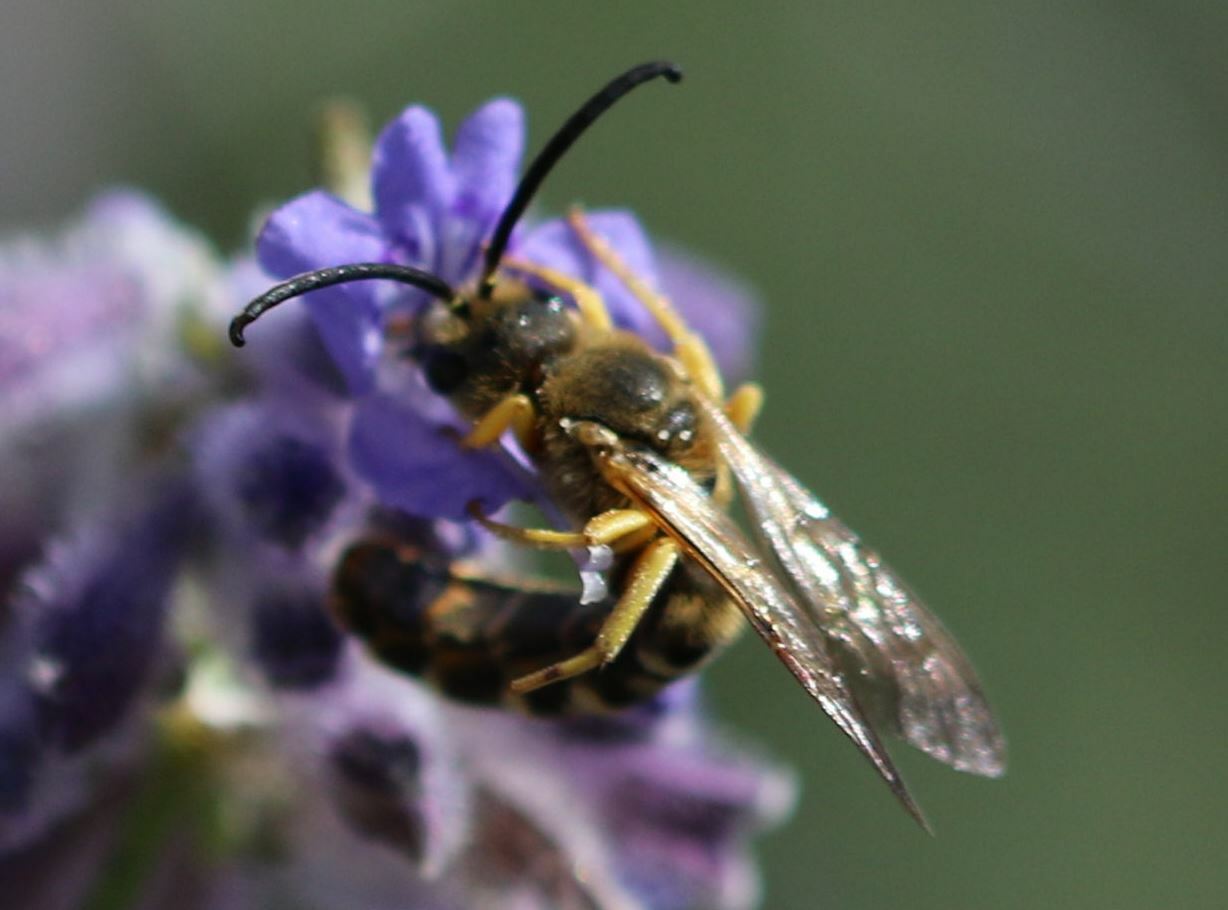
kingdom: Animalia
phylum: Arthropoda
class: Insecta
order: Hymenoptera
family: Halictidae
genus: Halictus
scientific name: Halictus scabiosae
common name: Great banded furrow bee
